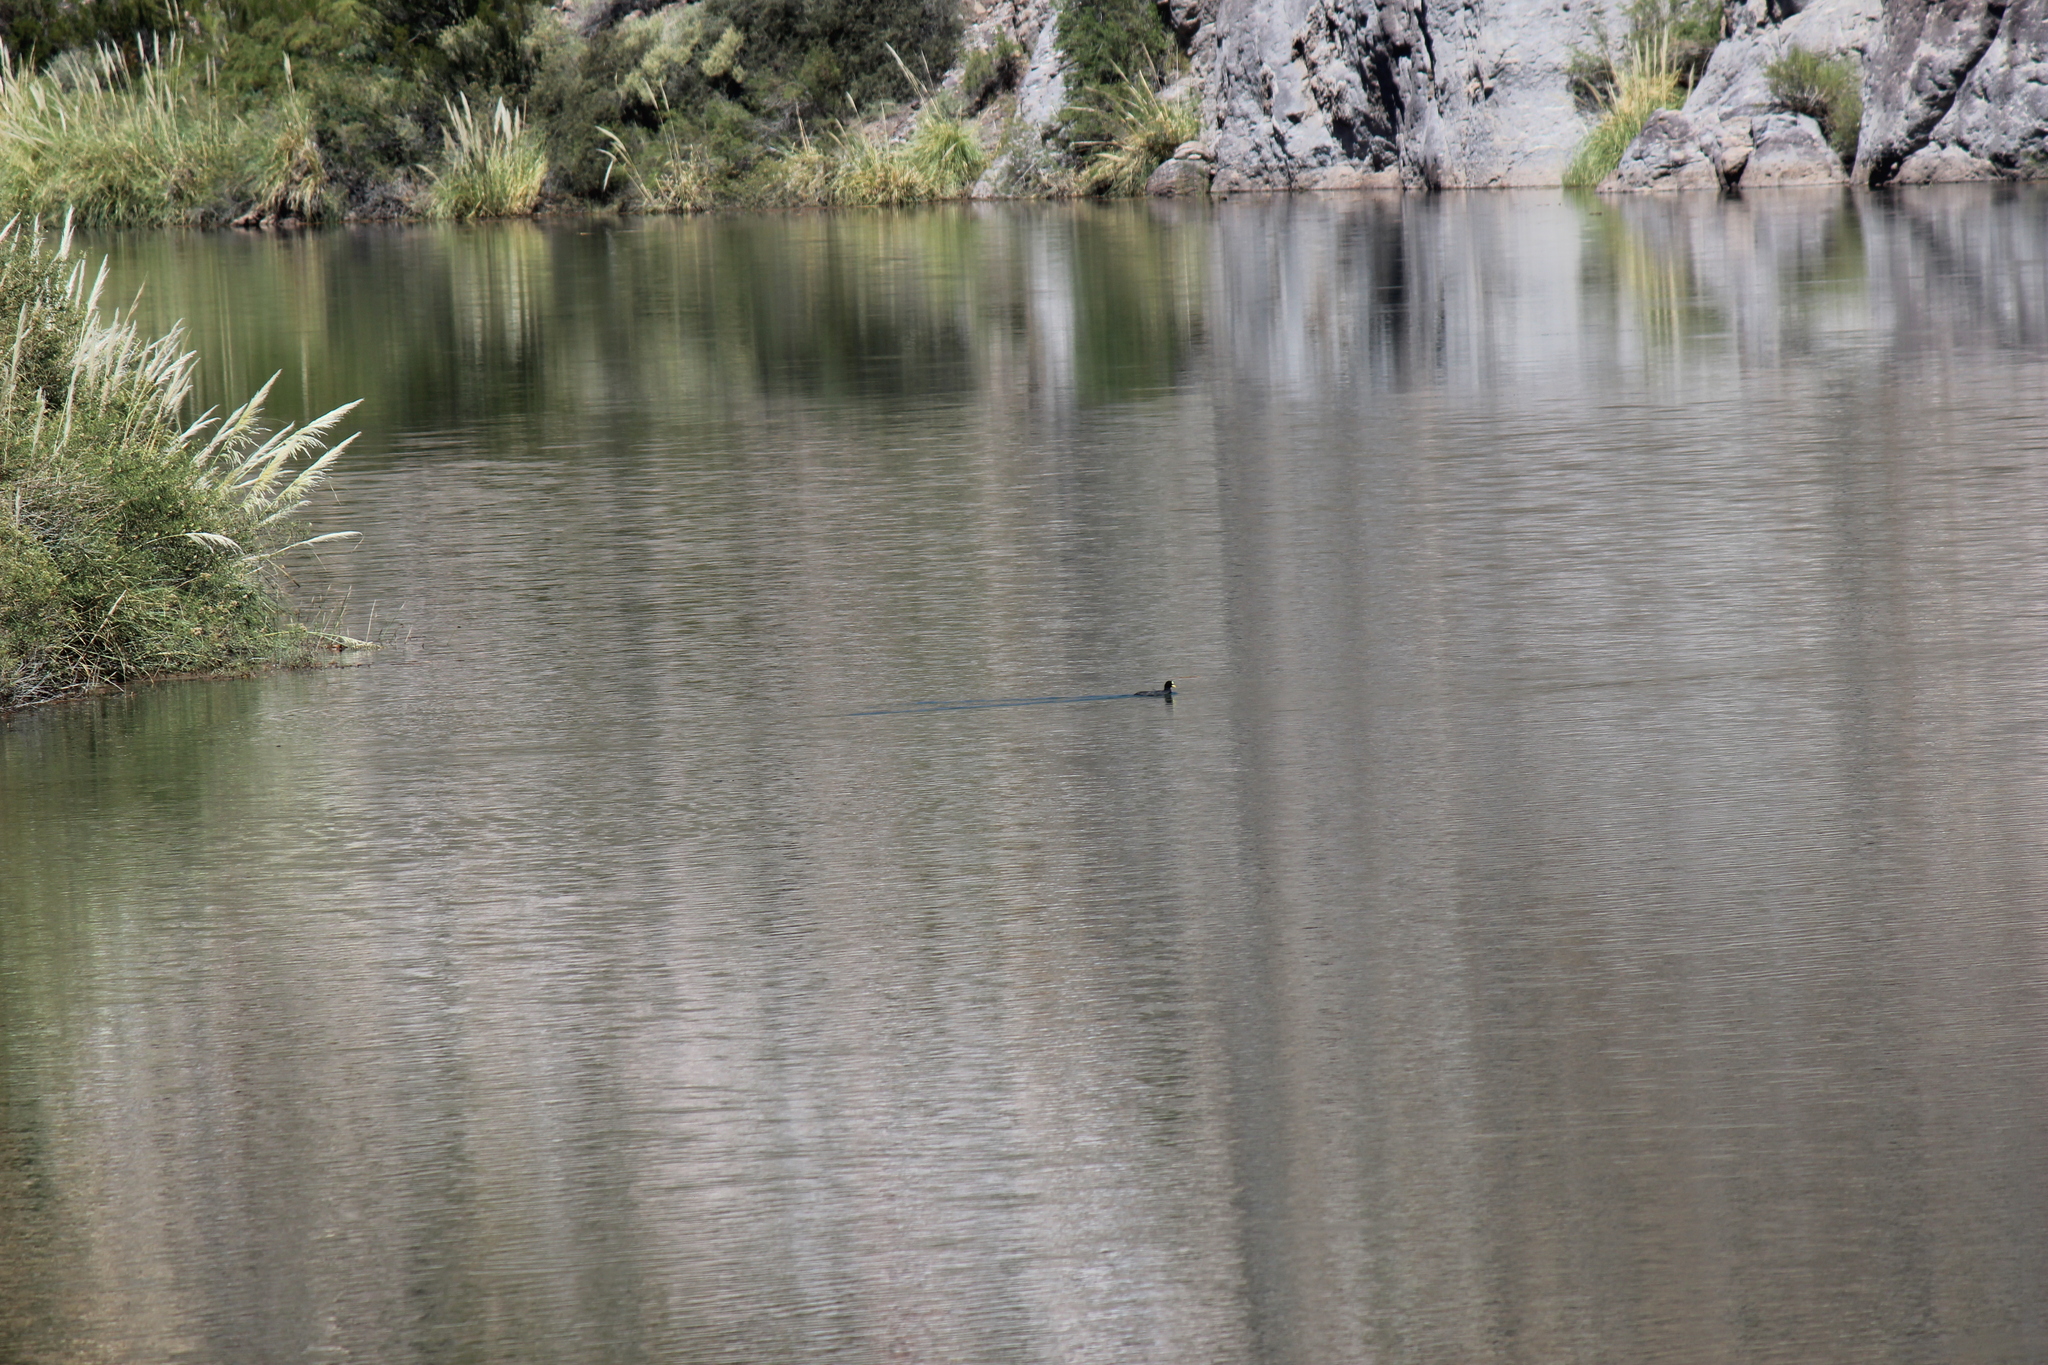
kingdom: Animalia
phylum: Chordata
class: Aves
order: Gruiformes
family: Rallidae
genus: Fulica
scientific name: Fulica armillata
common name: Red-gartered coot
